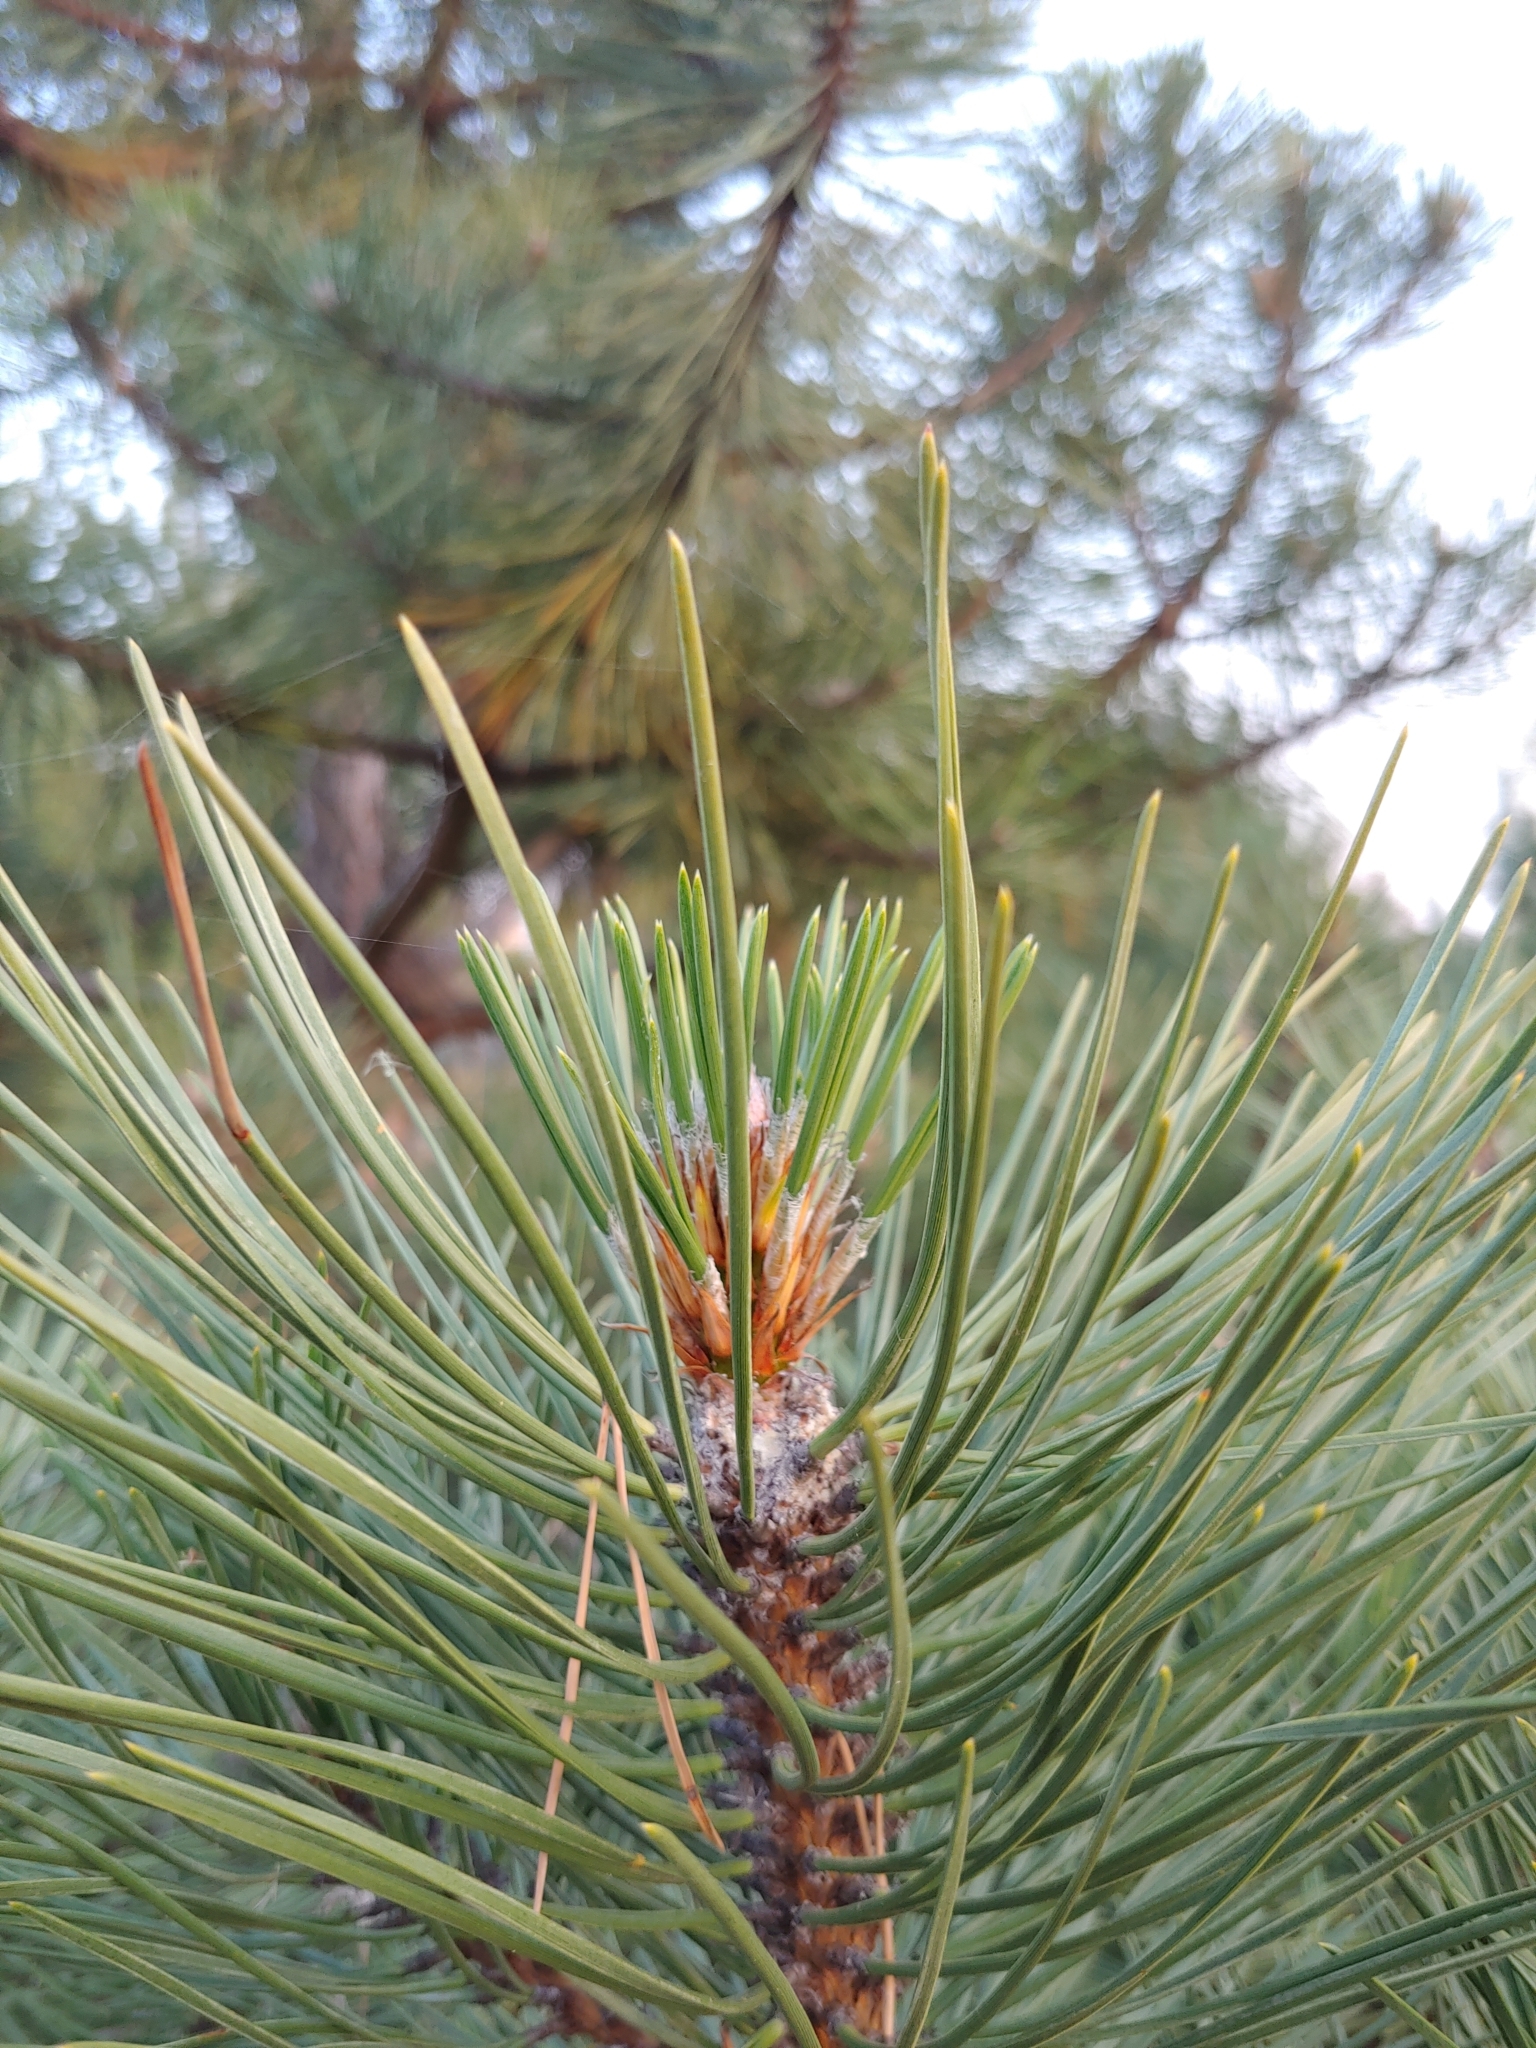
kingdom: Plantae
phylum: Tracheophyta
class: Pinopsida
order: Pinales
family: Pinaceae
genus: Pinus
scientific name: Pinus sylvestris
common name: Scots pine
